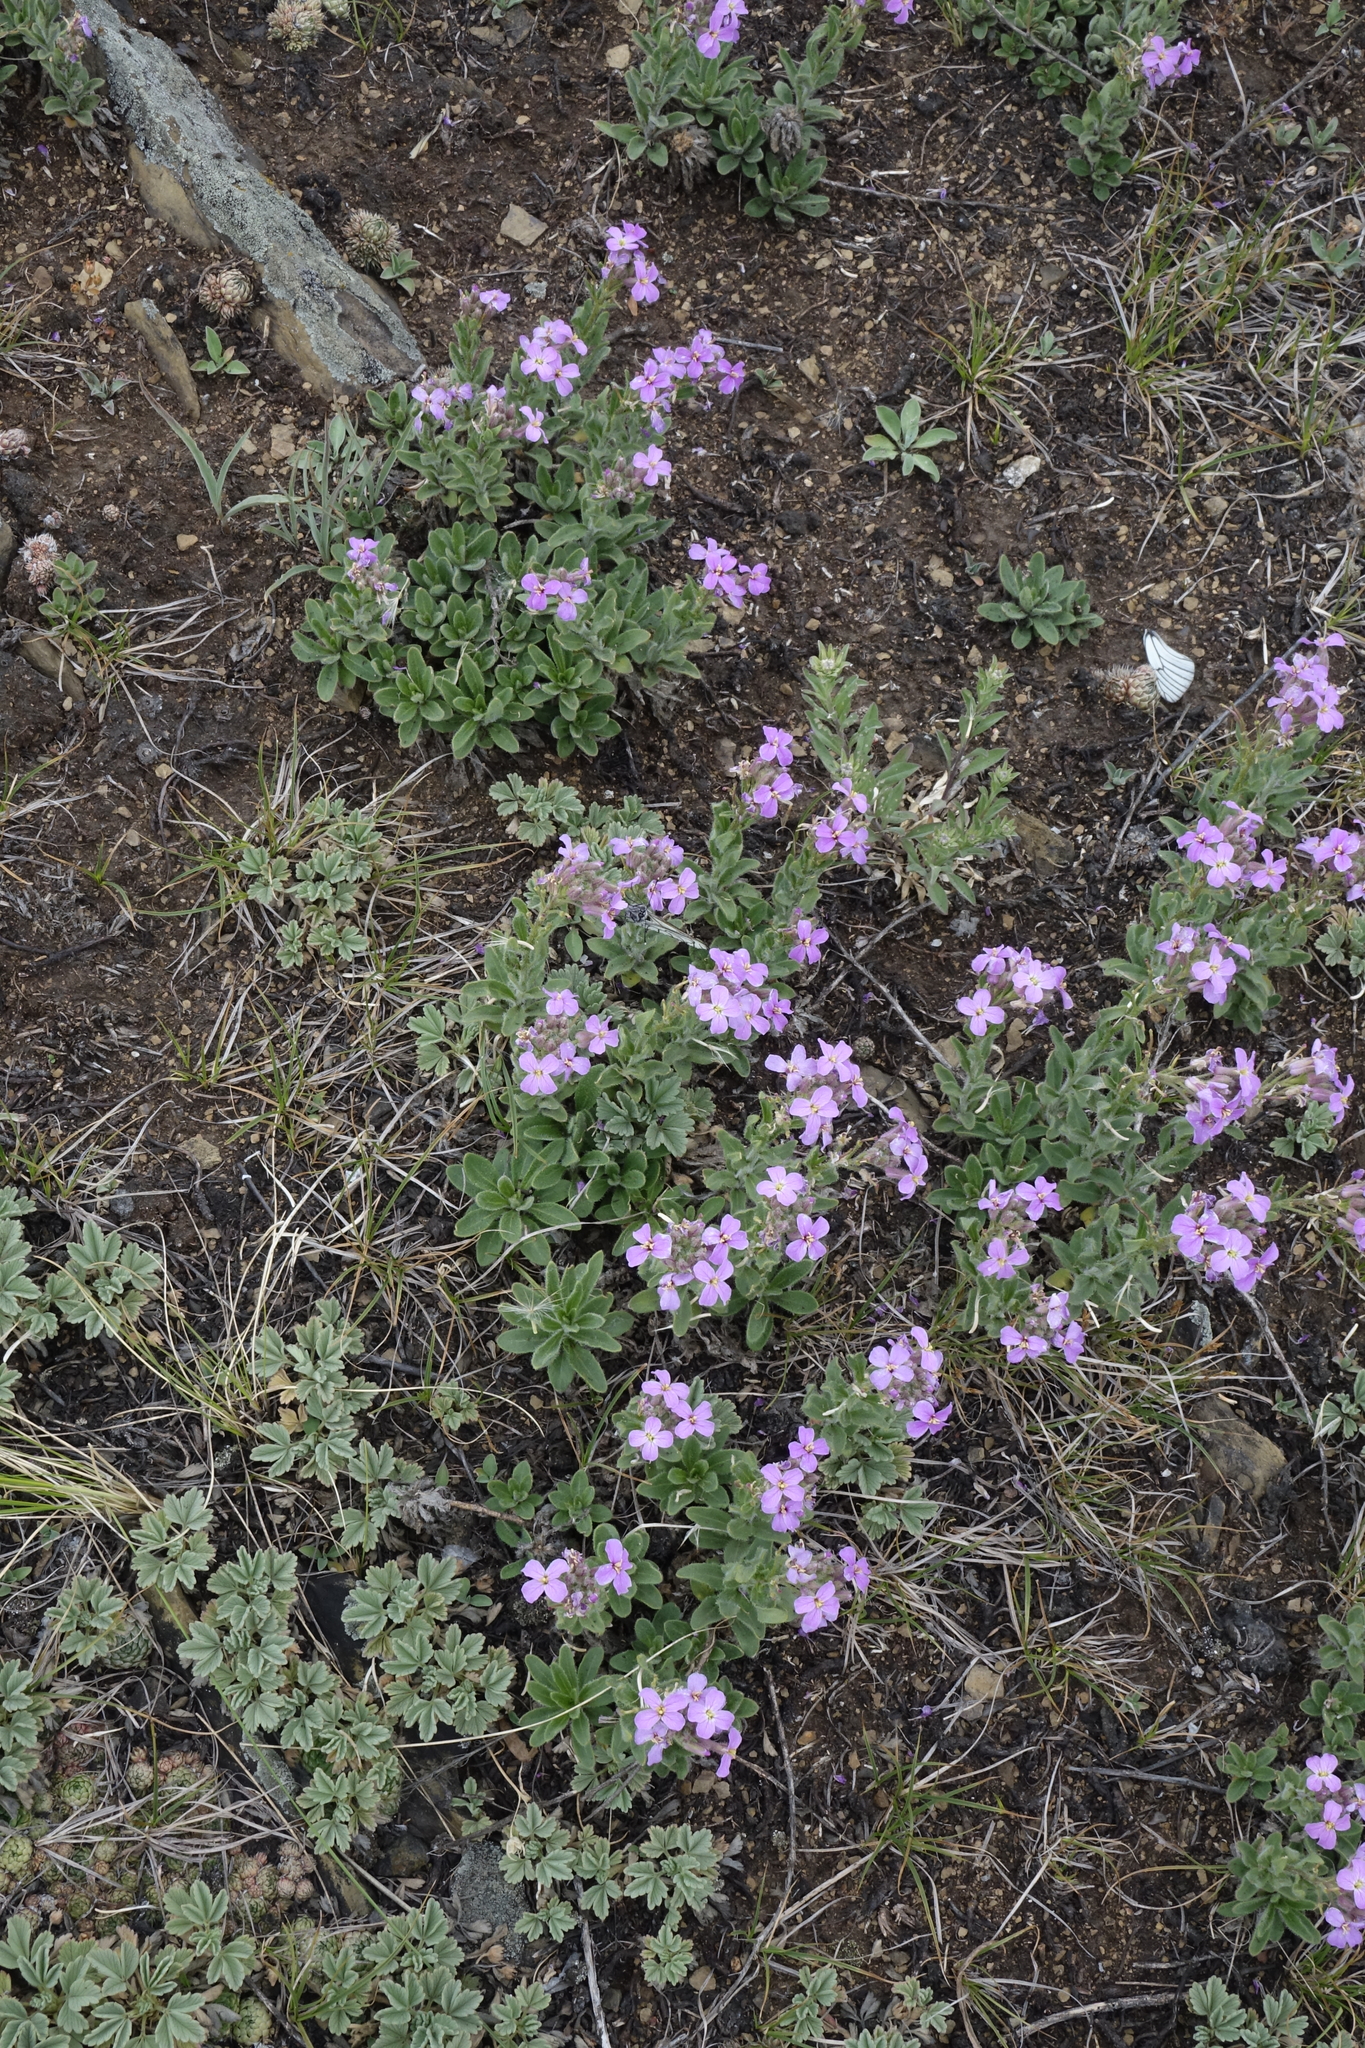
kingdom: Plantae
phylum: Tracheophyta
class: Magnoliopsida
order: Brassicales
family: Brassicaceae
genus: Clausia
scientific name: Clausia aprica
